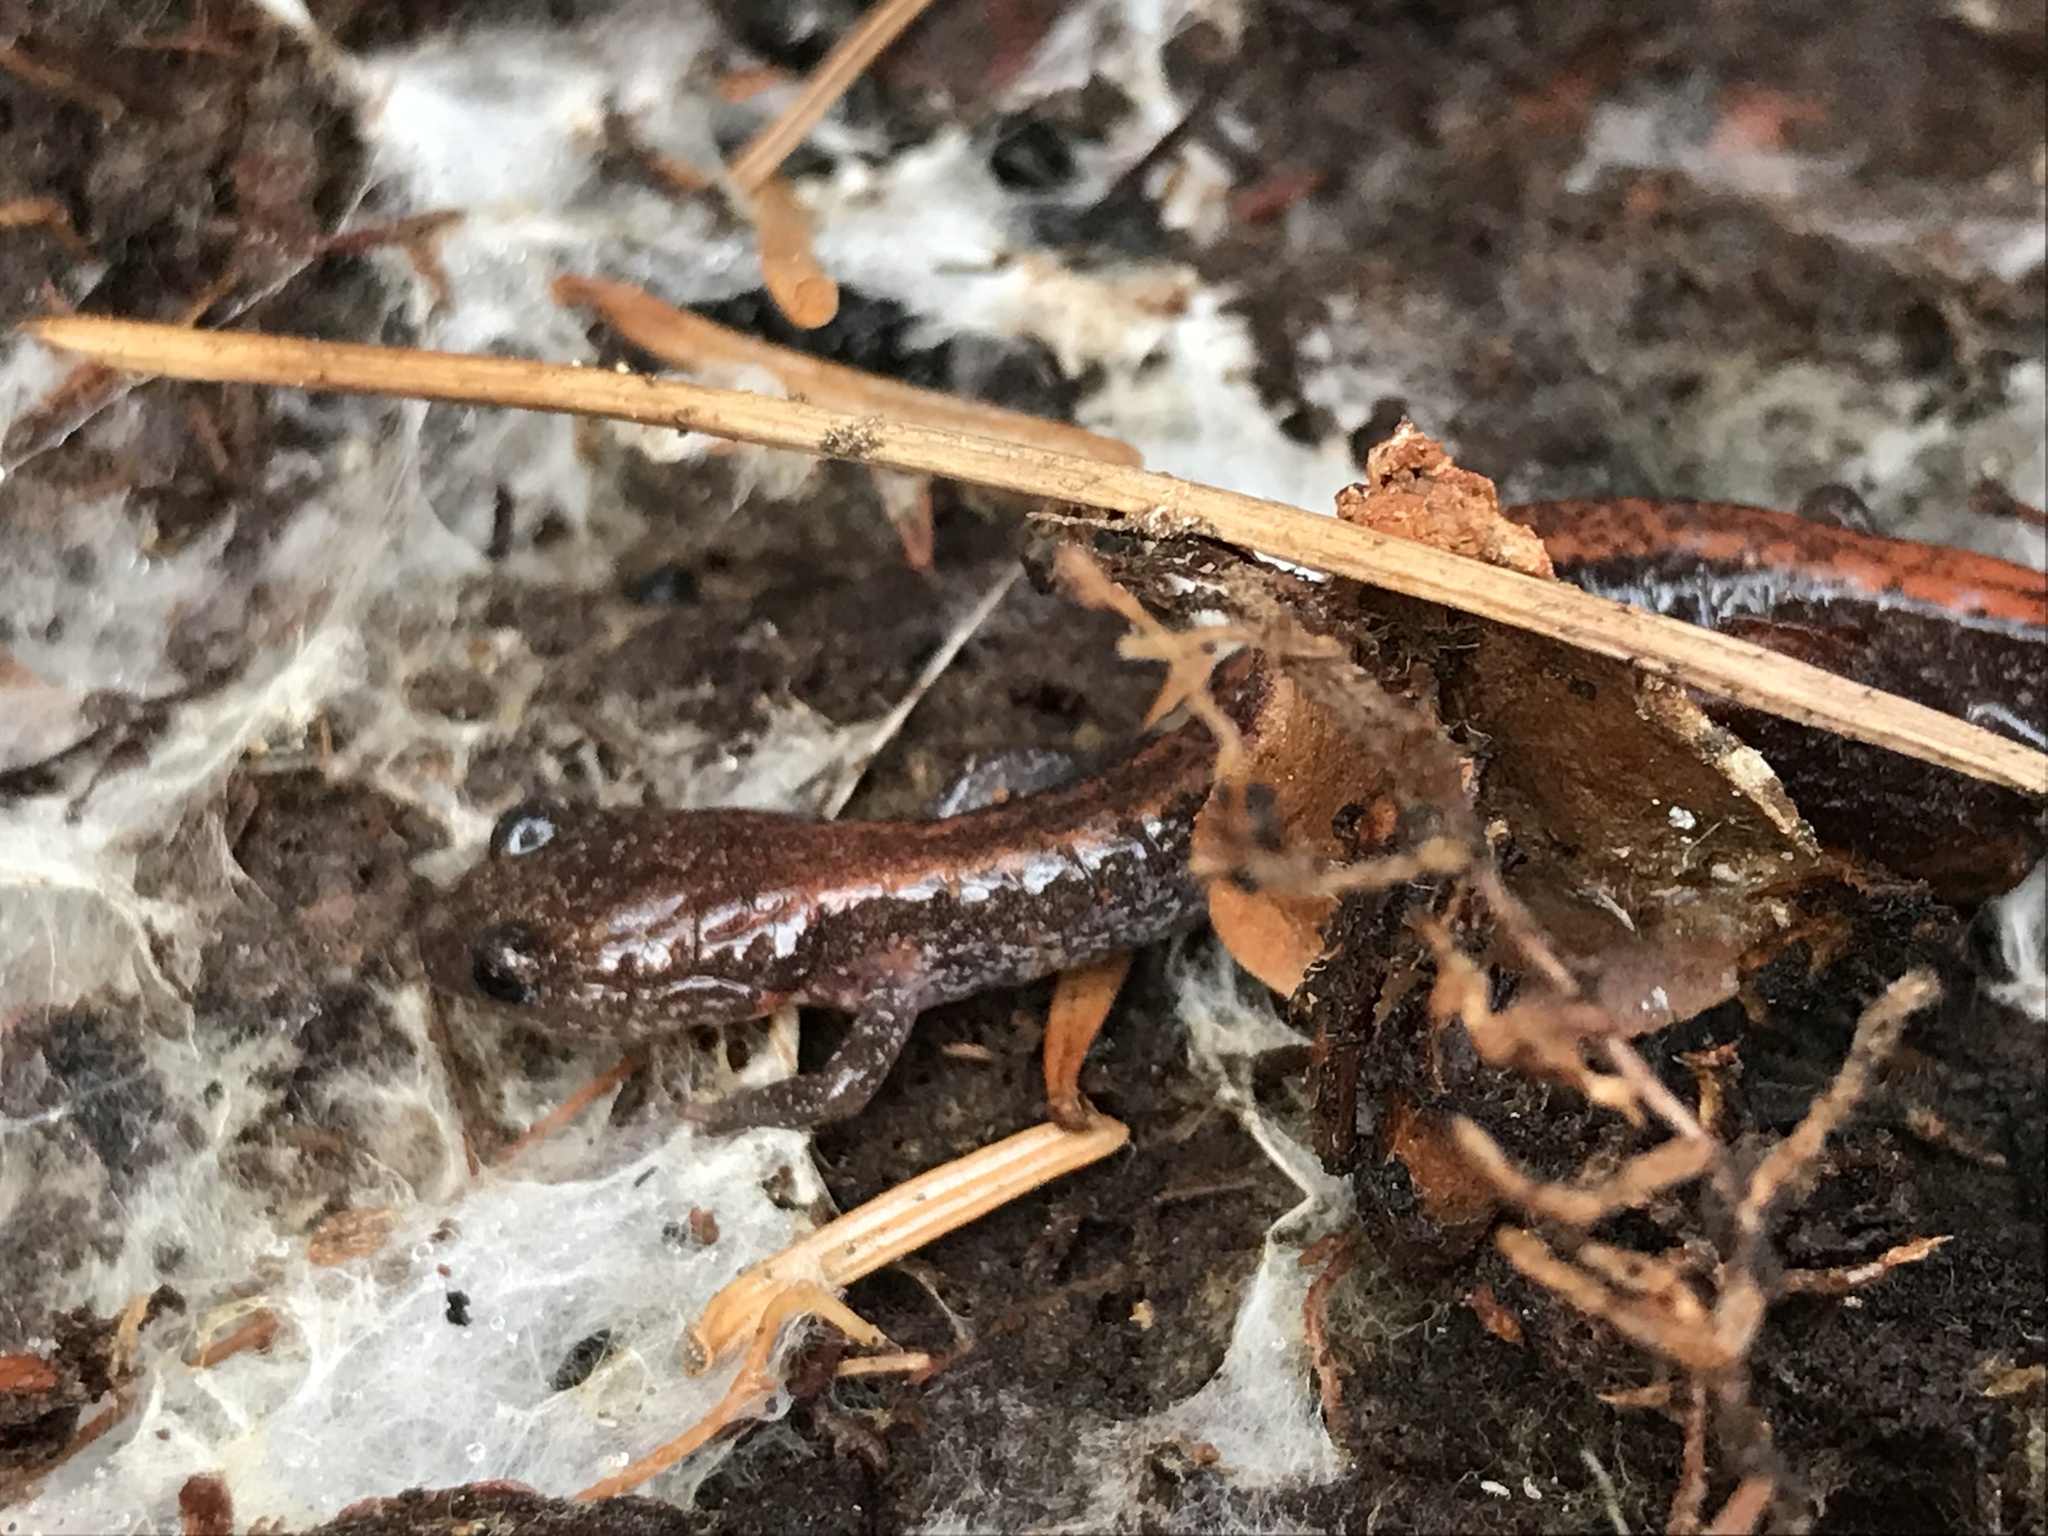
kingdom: Animalia
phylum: Chordata
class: Amphibia
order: Caudata
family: Plethodontidae
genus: Plethodon
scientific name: Plethodon cinereus
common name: Redback salamander
